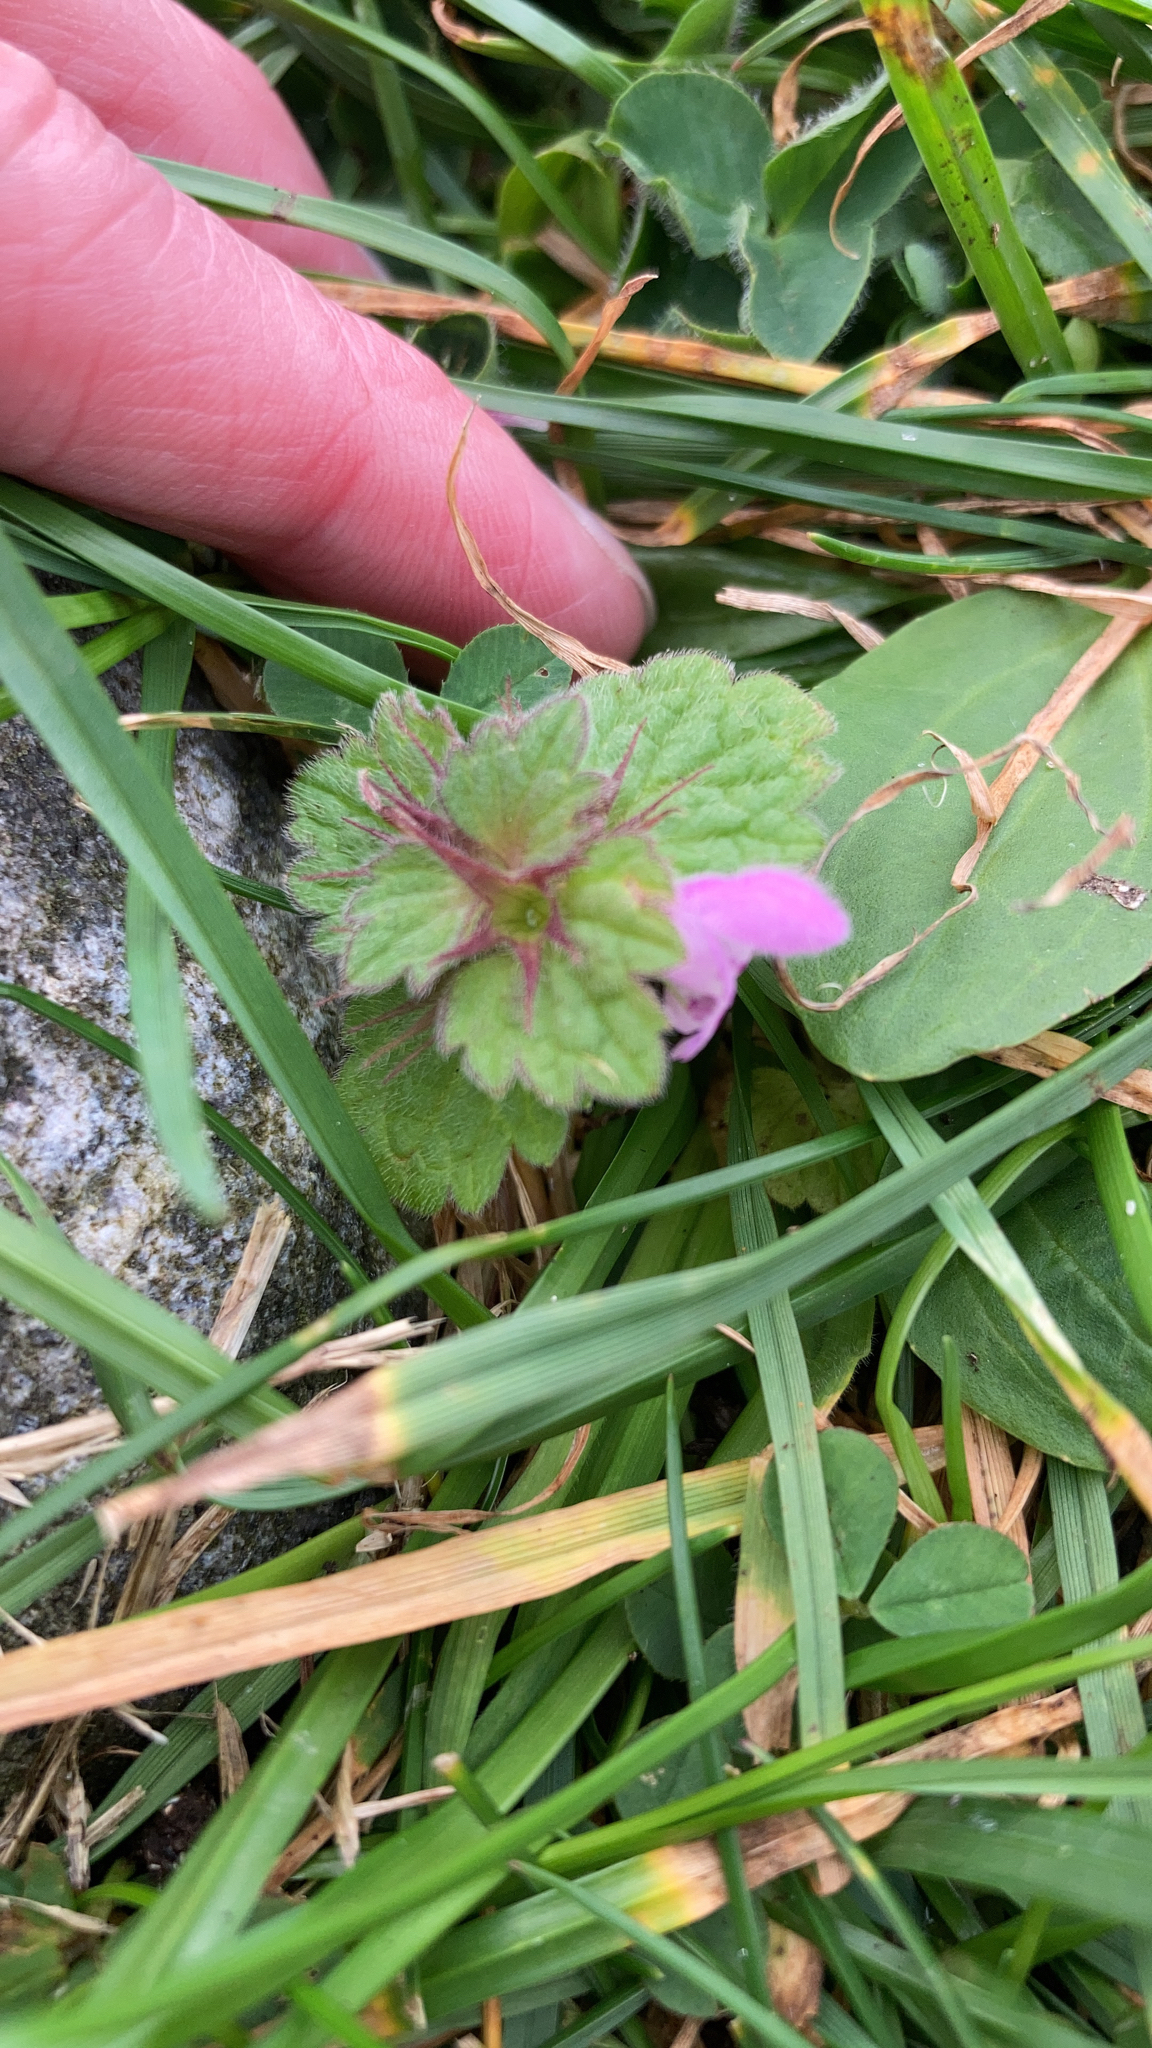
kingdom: Plantae
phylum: Tracheophyta
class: Magnoliopsida
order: Lamiales
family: Lamiaceae
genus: Lamium
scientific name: Lamium purpureum
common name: Red dead-nettle
